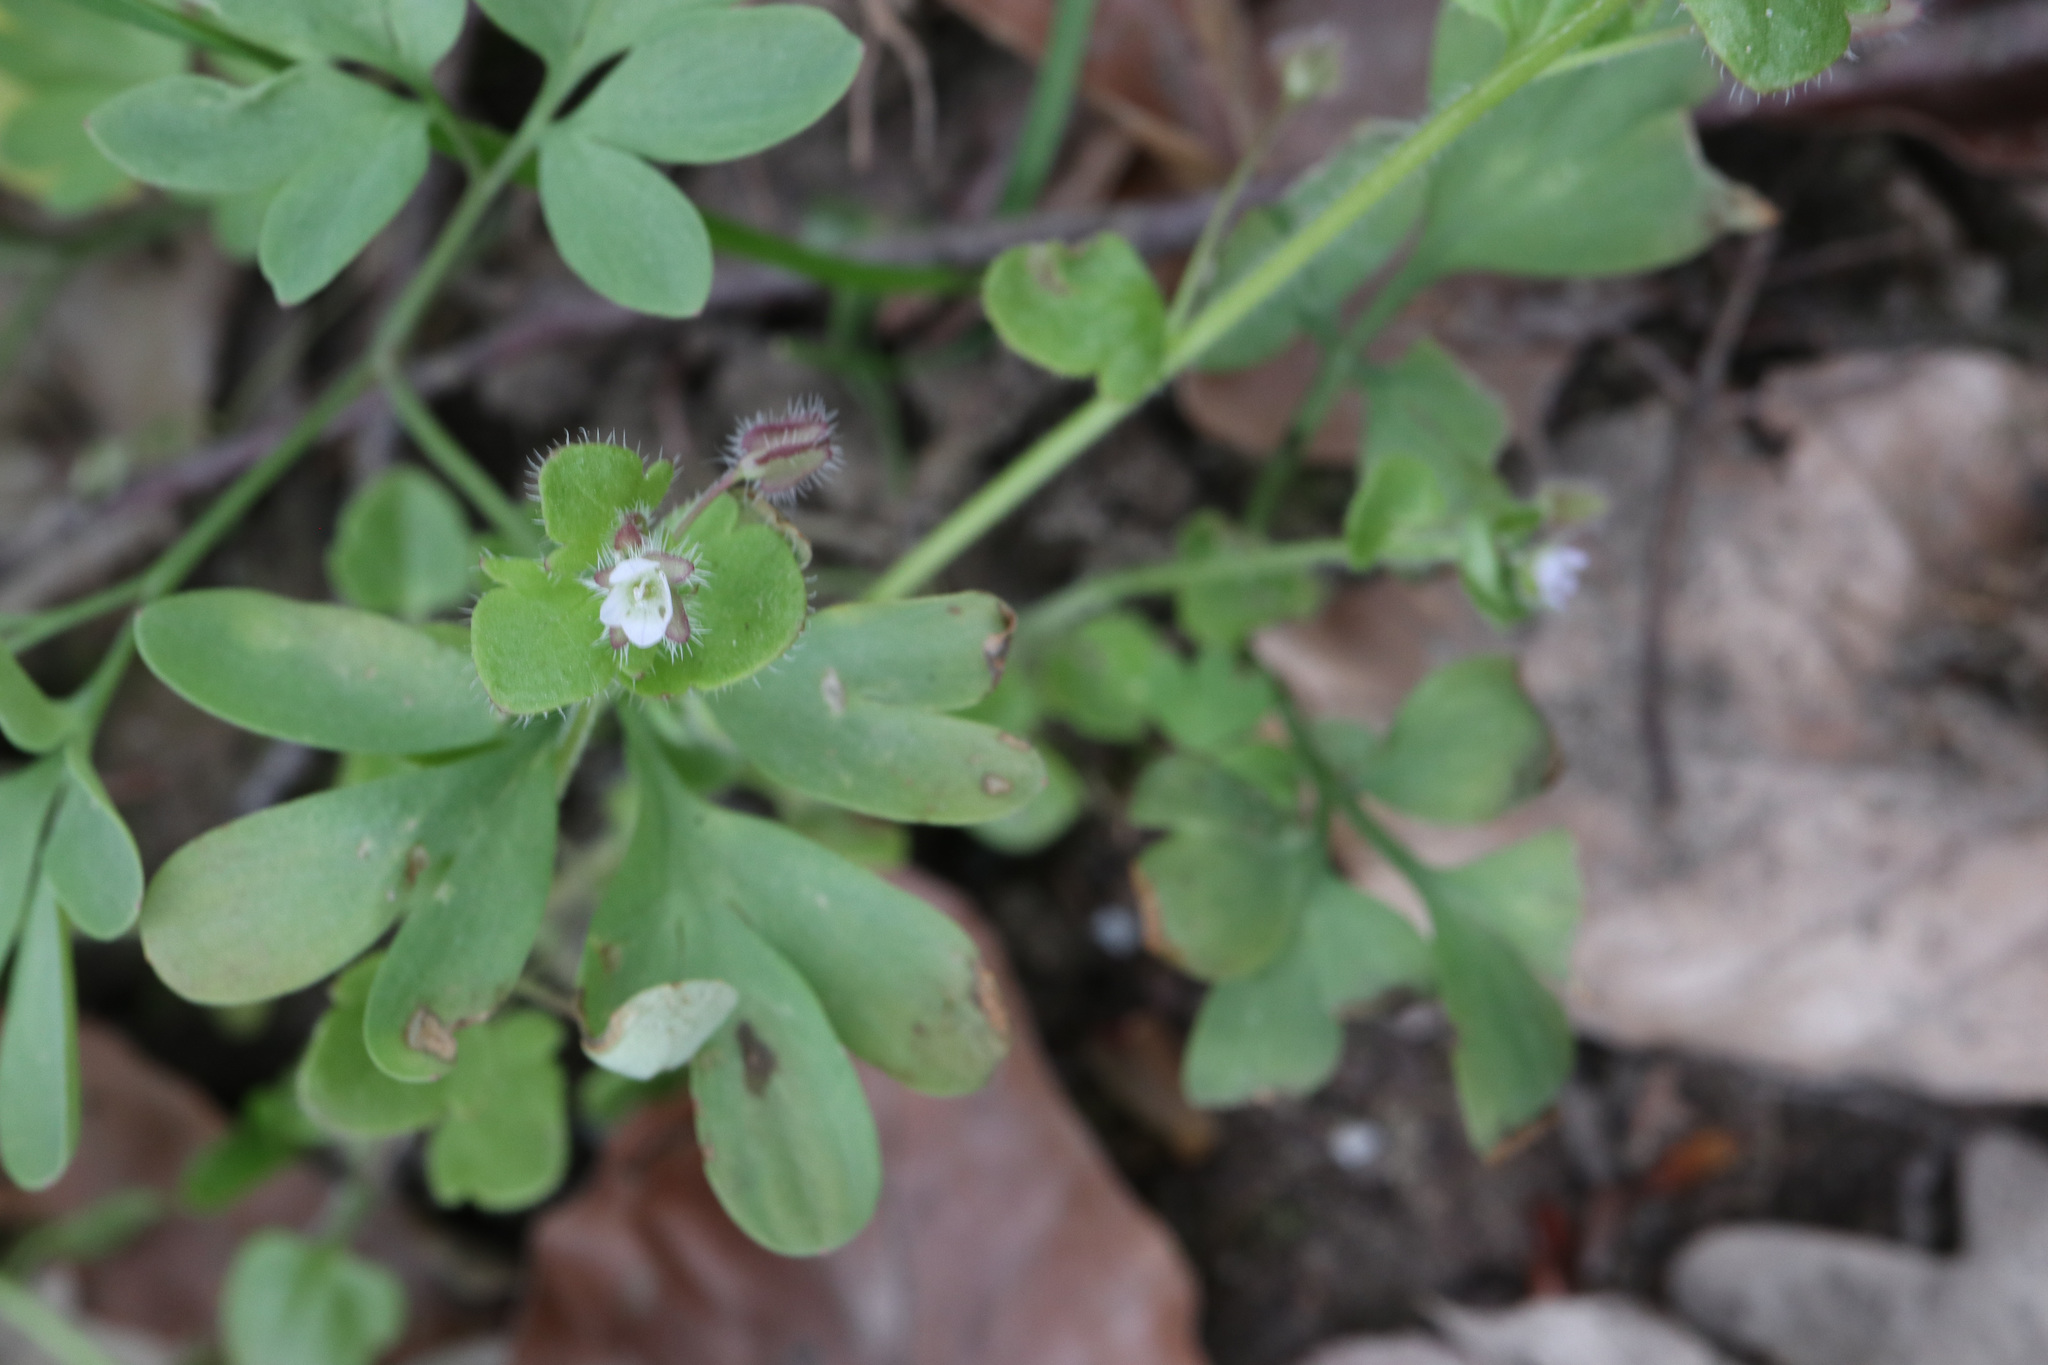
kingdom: Plantae
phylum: Tracheophyta
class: Magnoliopsida
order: Lamiales
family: Plantaginaceae
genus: Veronica
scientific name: Veronica sublobata
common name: False ivy-leaved speedwell
